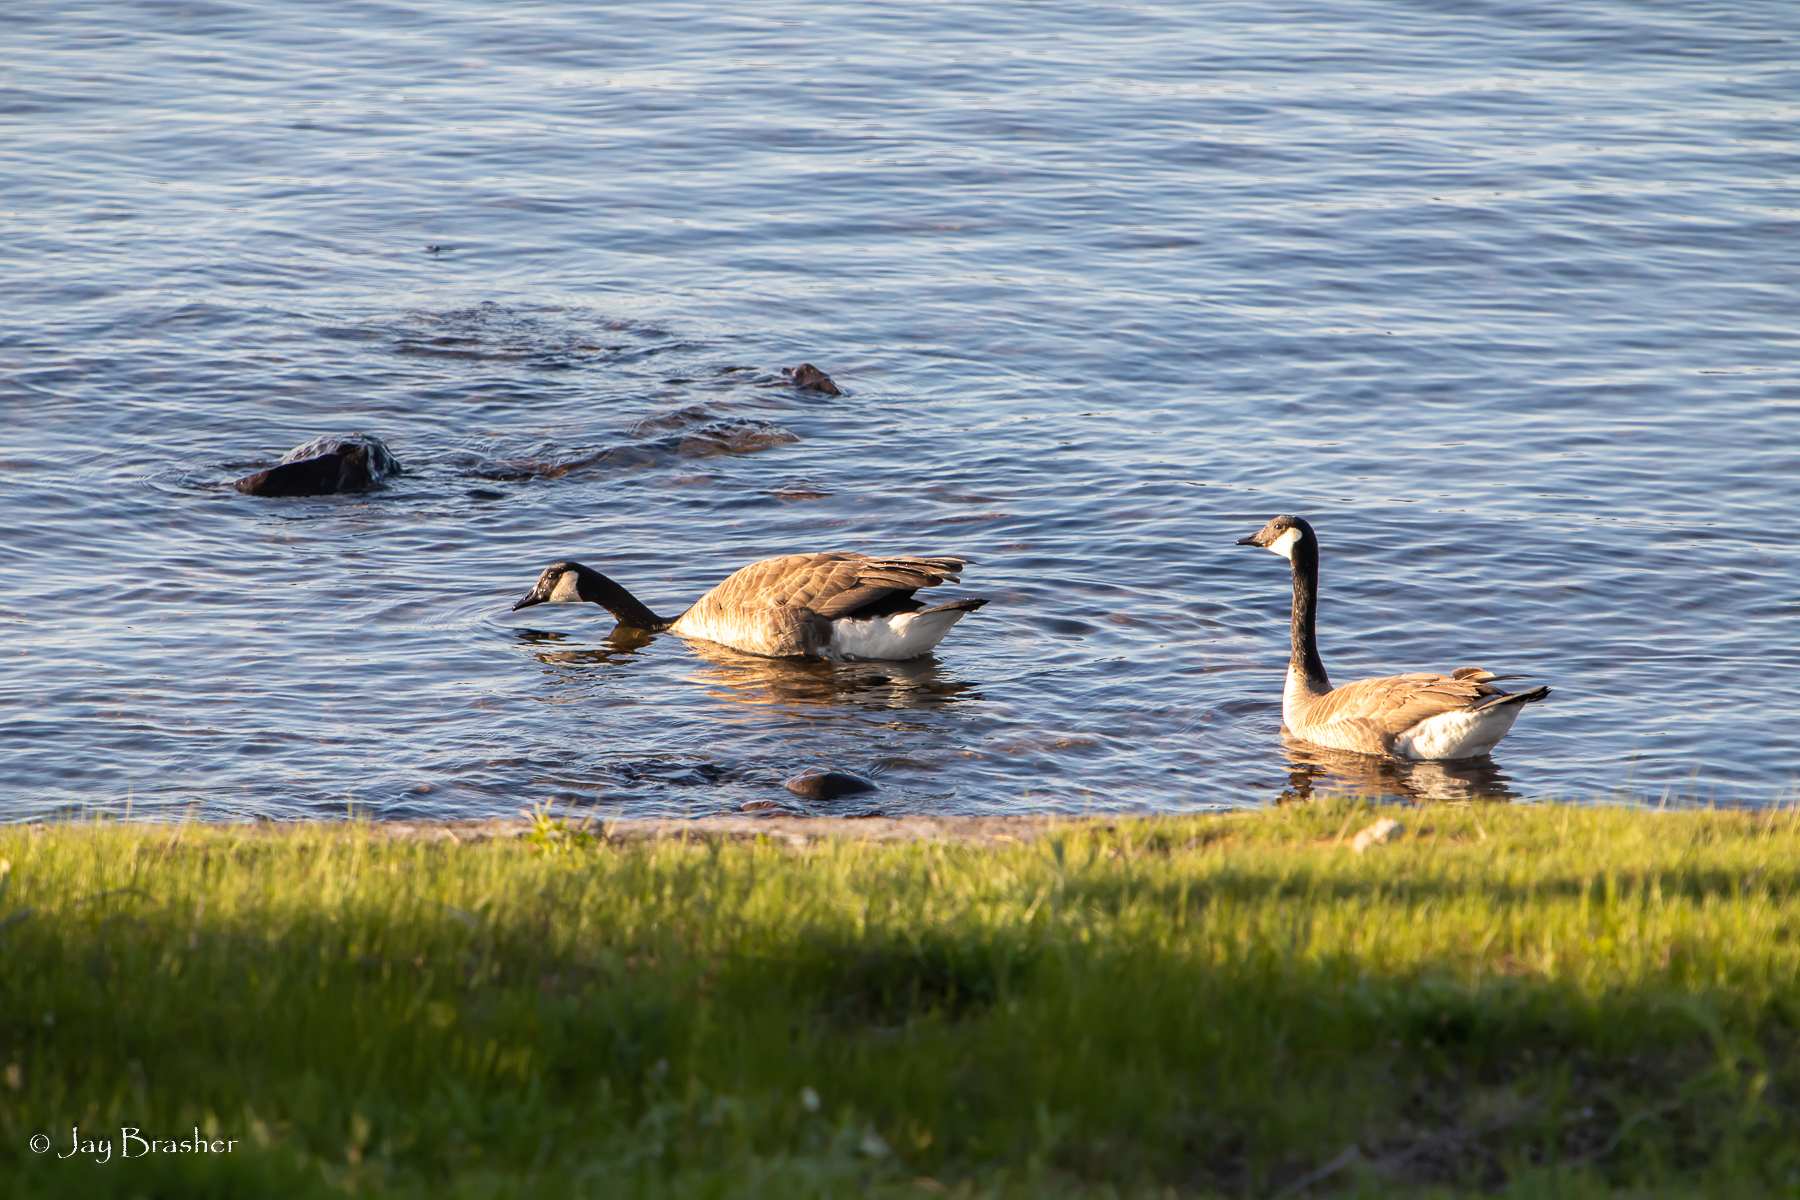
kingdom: Animalia
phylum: Chordata
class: Aves
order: Anseriformes
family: Anatidae
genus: Branta
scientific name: Branta canadensis
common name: Canada goose
